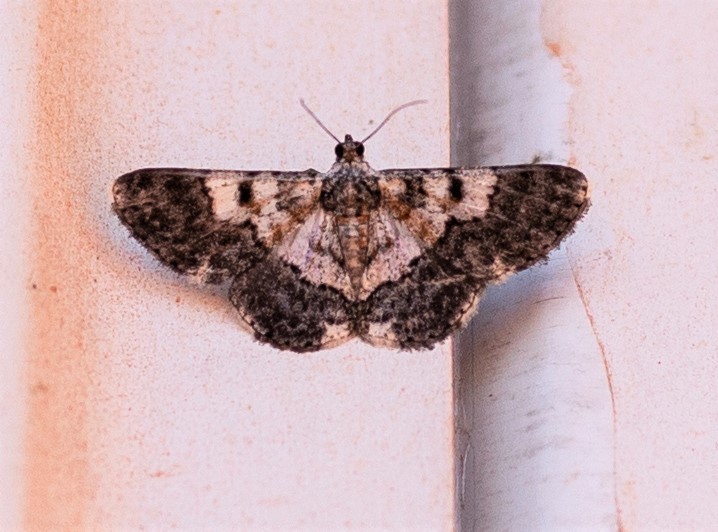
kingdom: Animalia
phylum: Arthropoda
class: Insecta
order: Lepidoptera
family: Geometridae
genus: Hymenomima
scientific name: Hymenomima cogigaria
